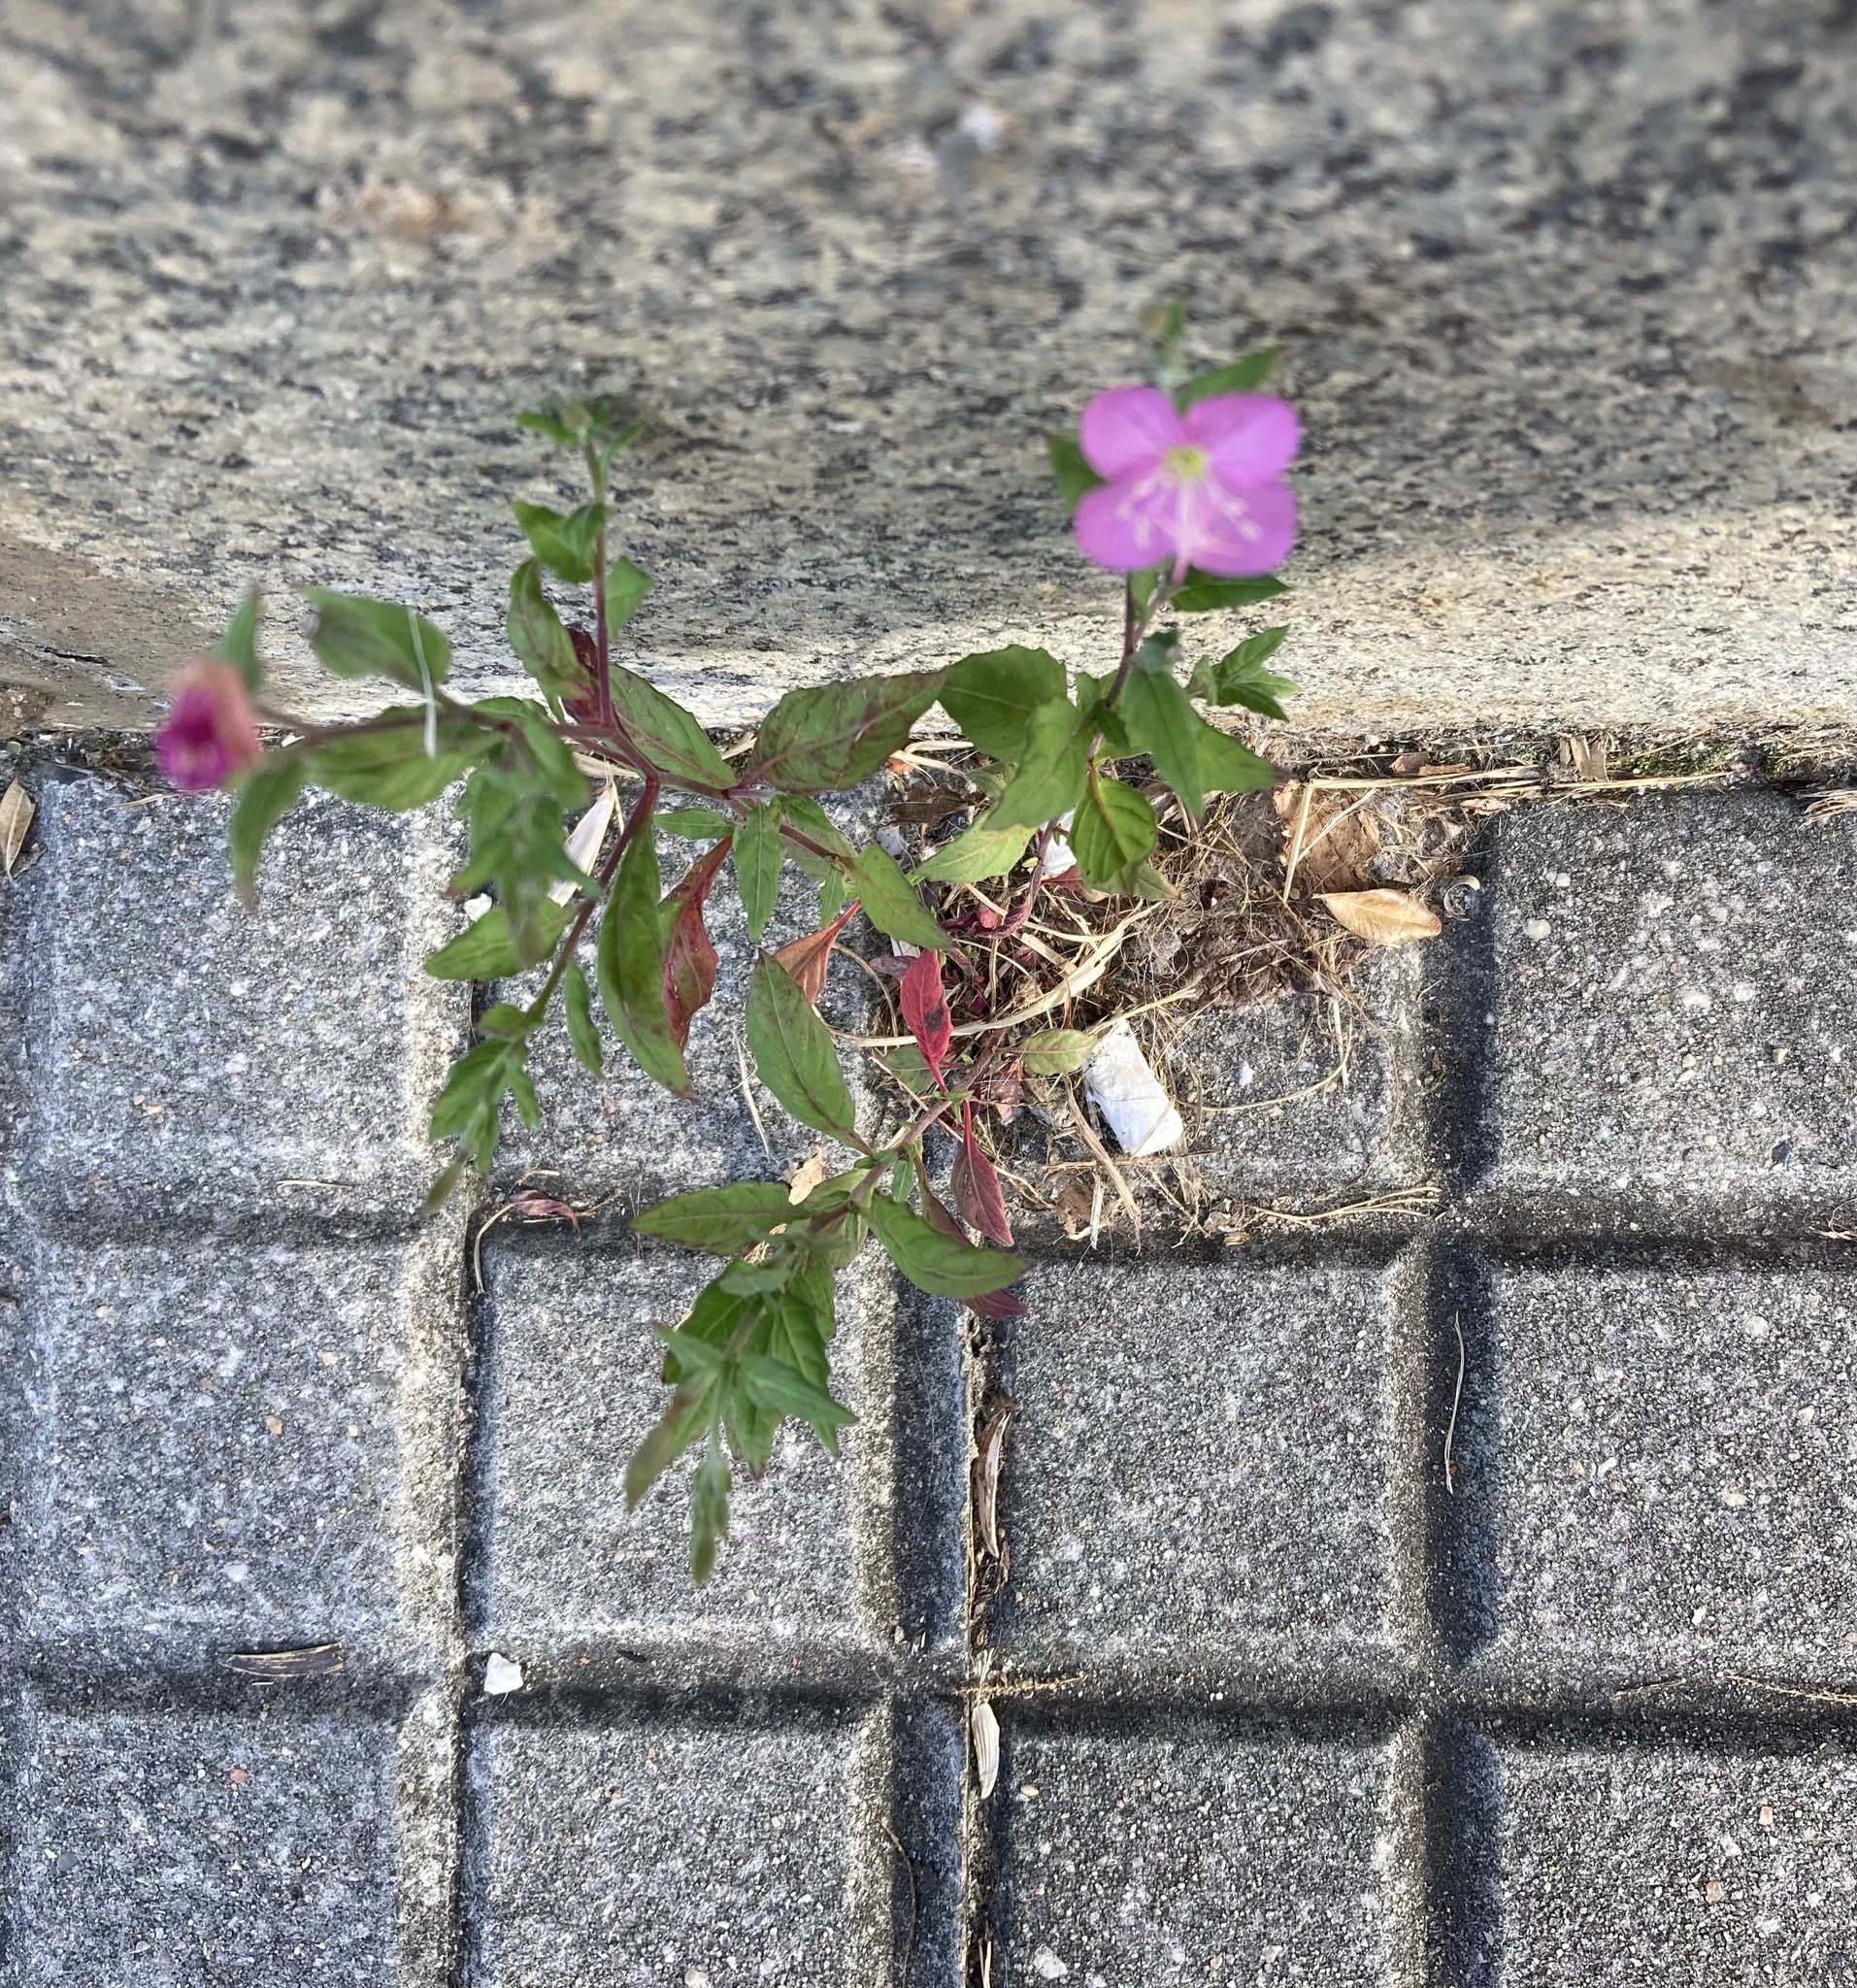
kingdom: Plantae
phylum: Tracheophyta
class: Magnoliopsida
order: Myrtales
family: Onagraceae
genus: Oenothera
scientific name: Oenothera rosea
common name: Rosy evening-primrose
